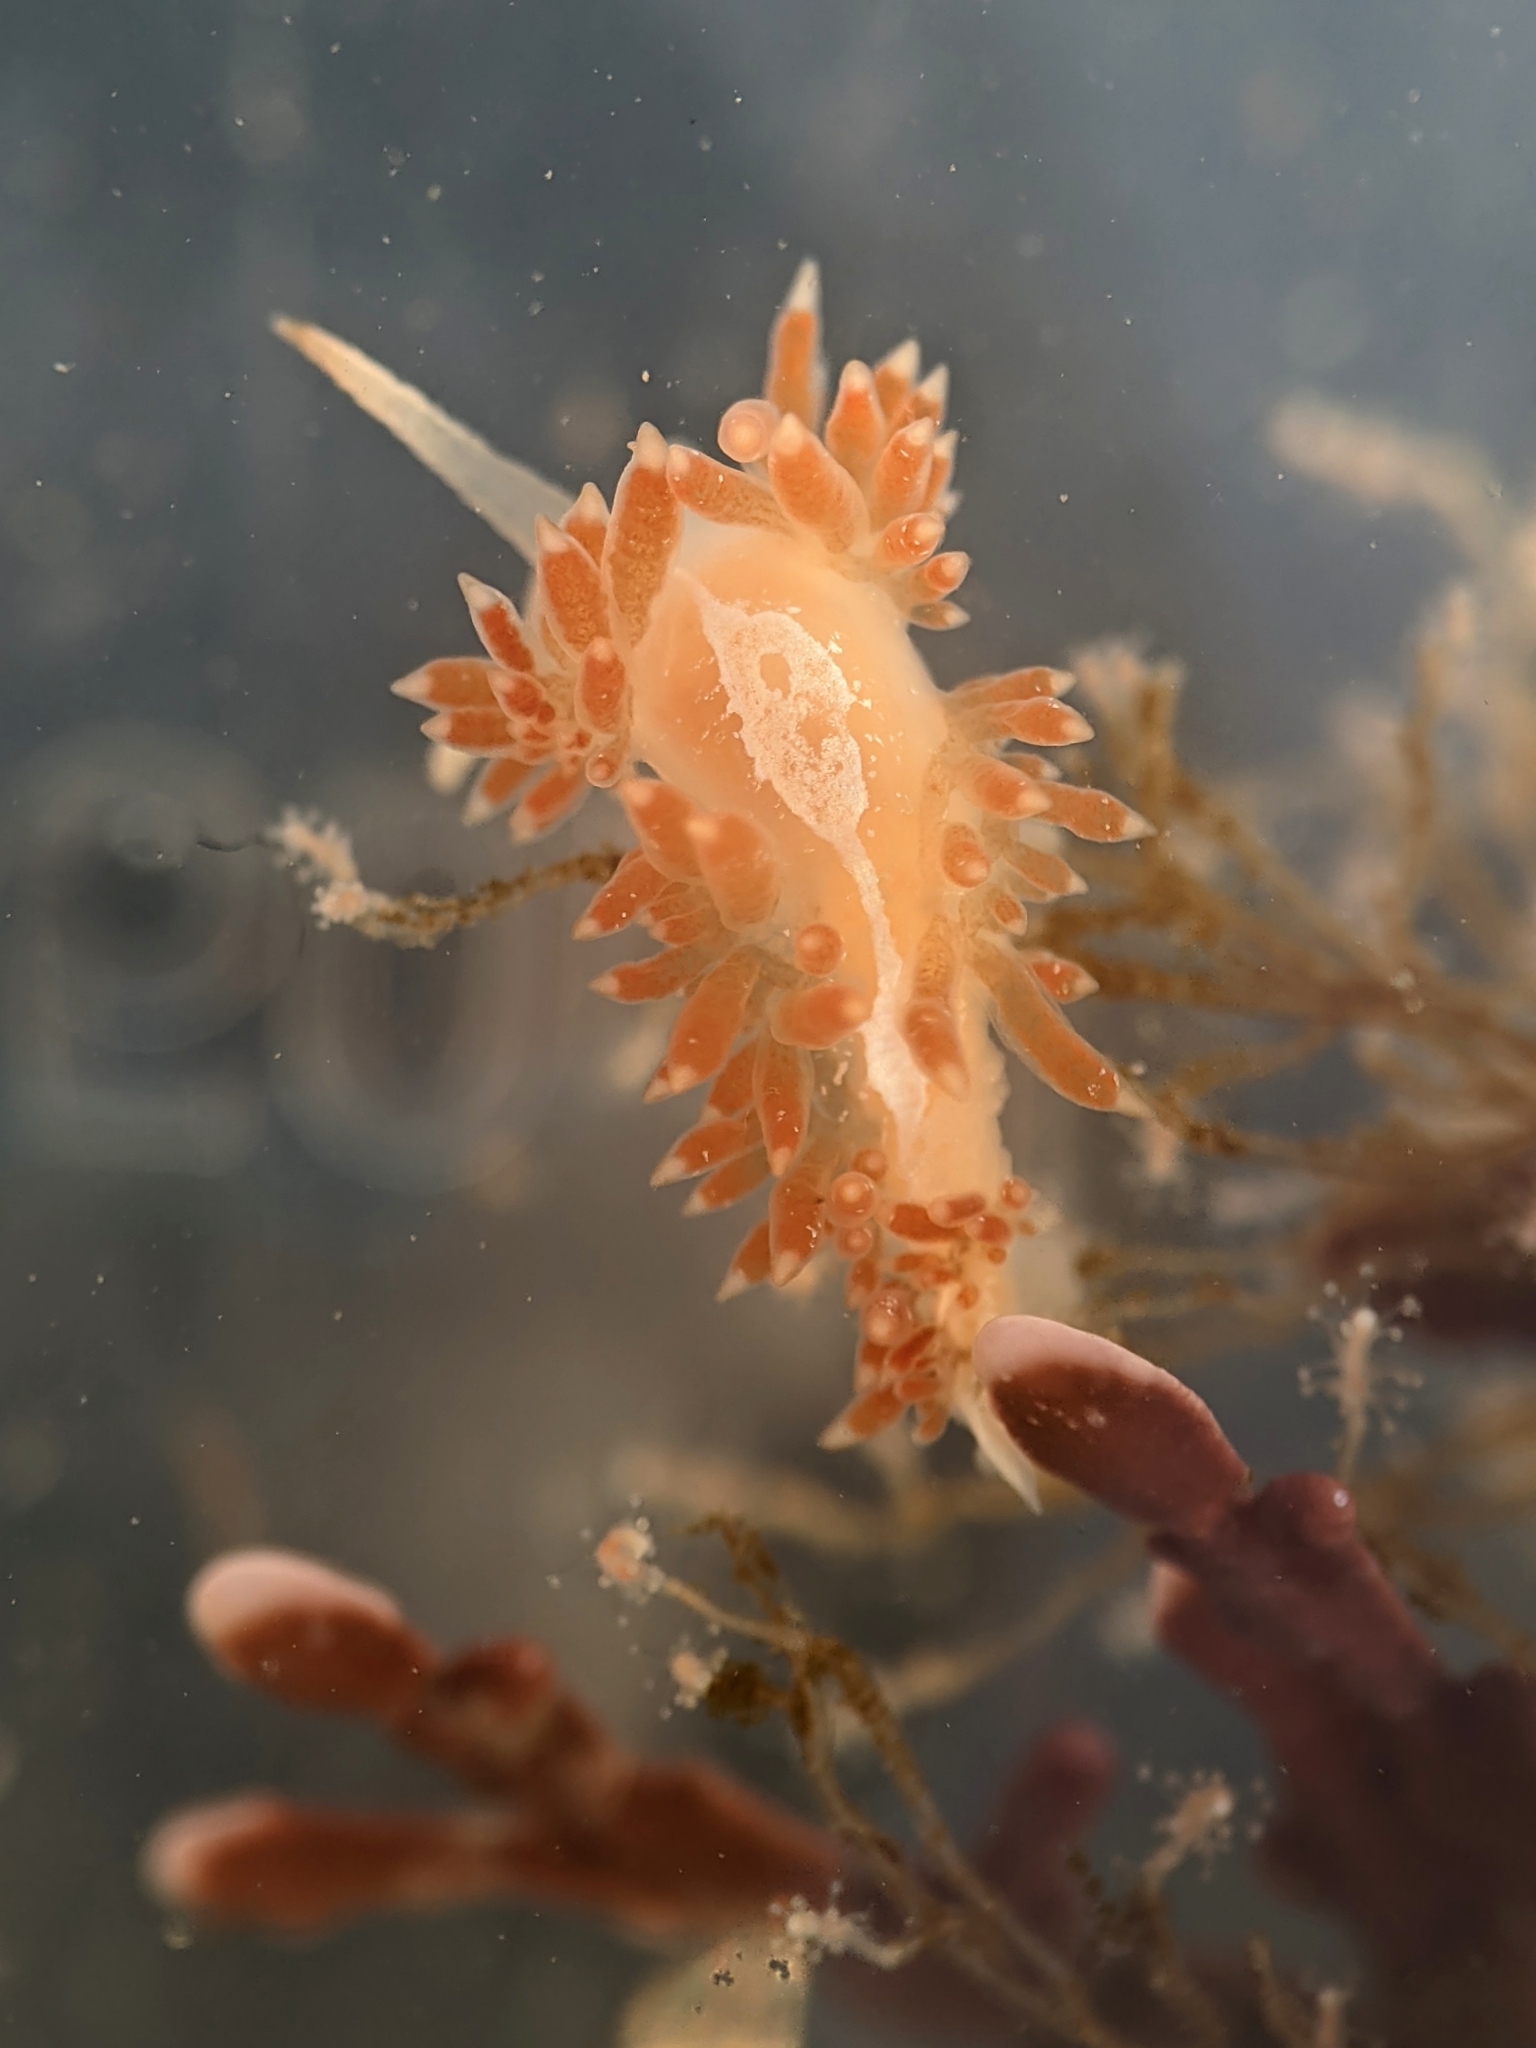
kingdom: Animalia
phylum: Mollusca
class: Gastropoda
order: Nudibranchia
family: Coryphellidae
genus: Coryphella
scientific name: Coryphella cooperi
